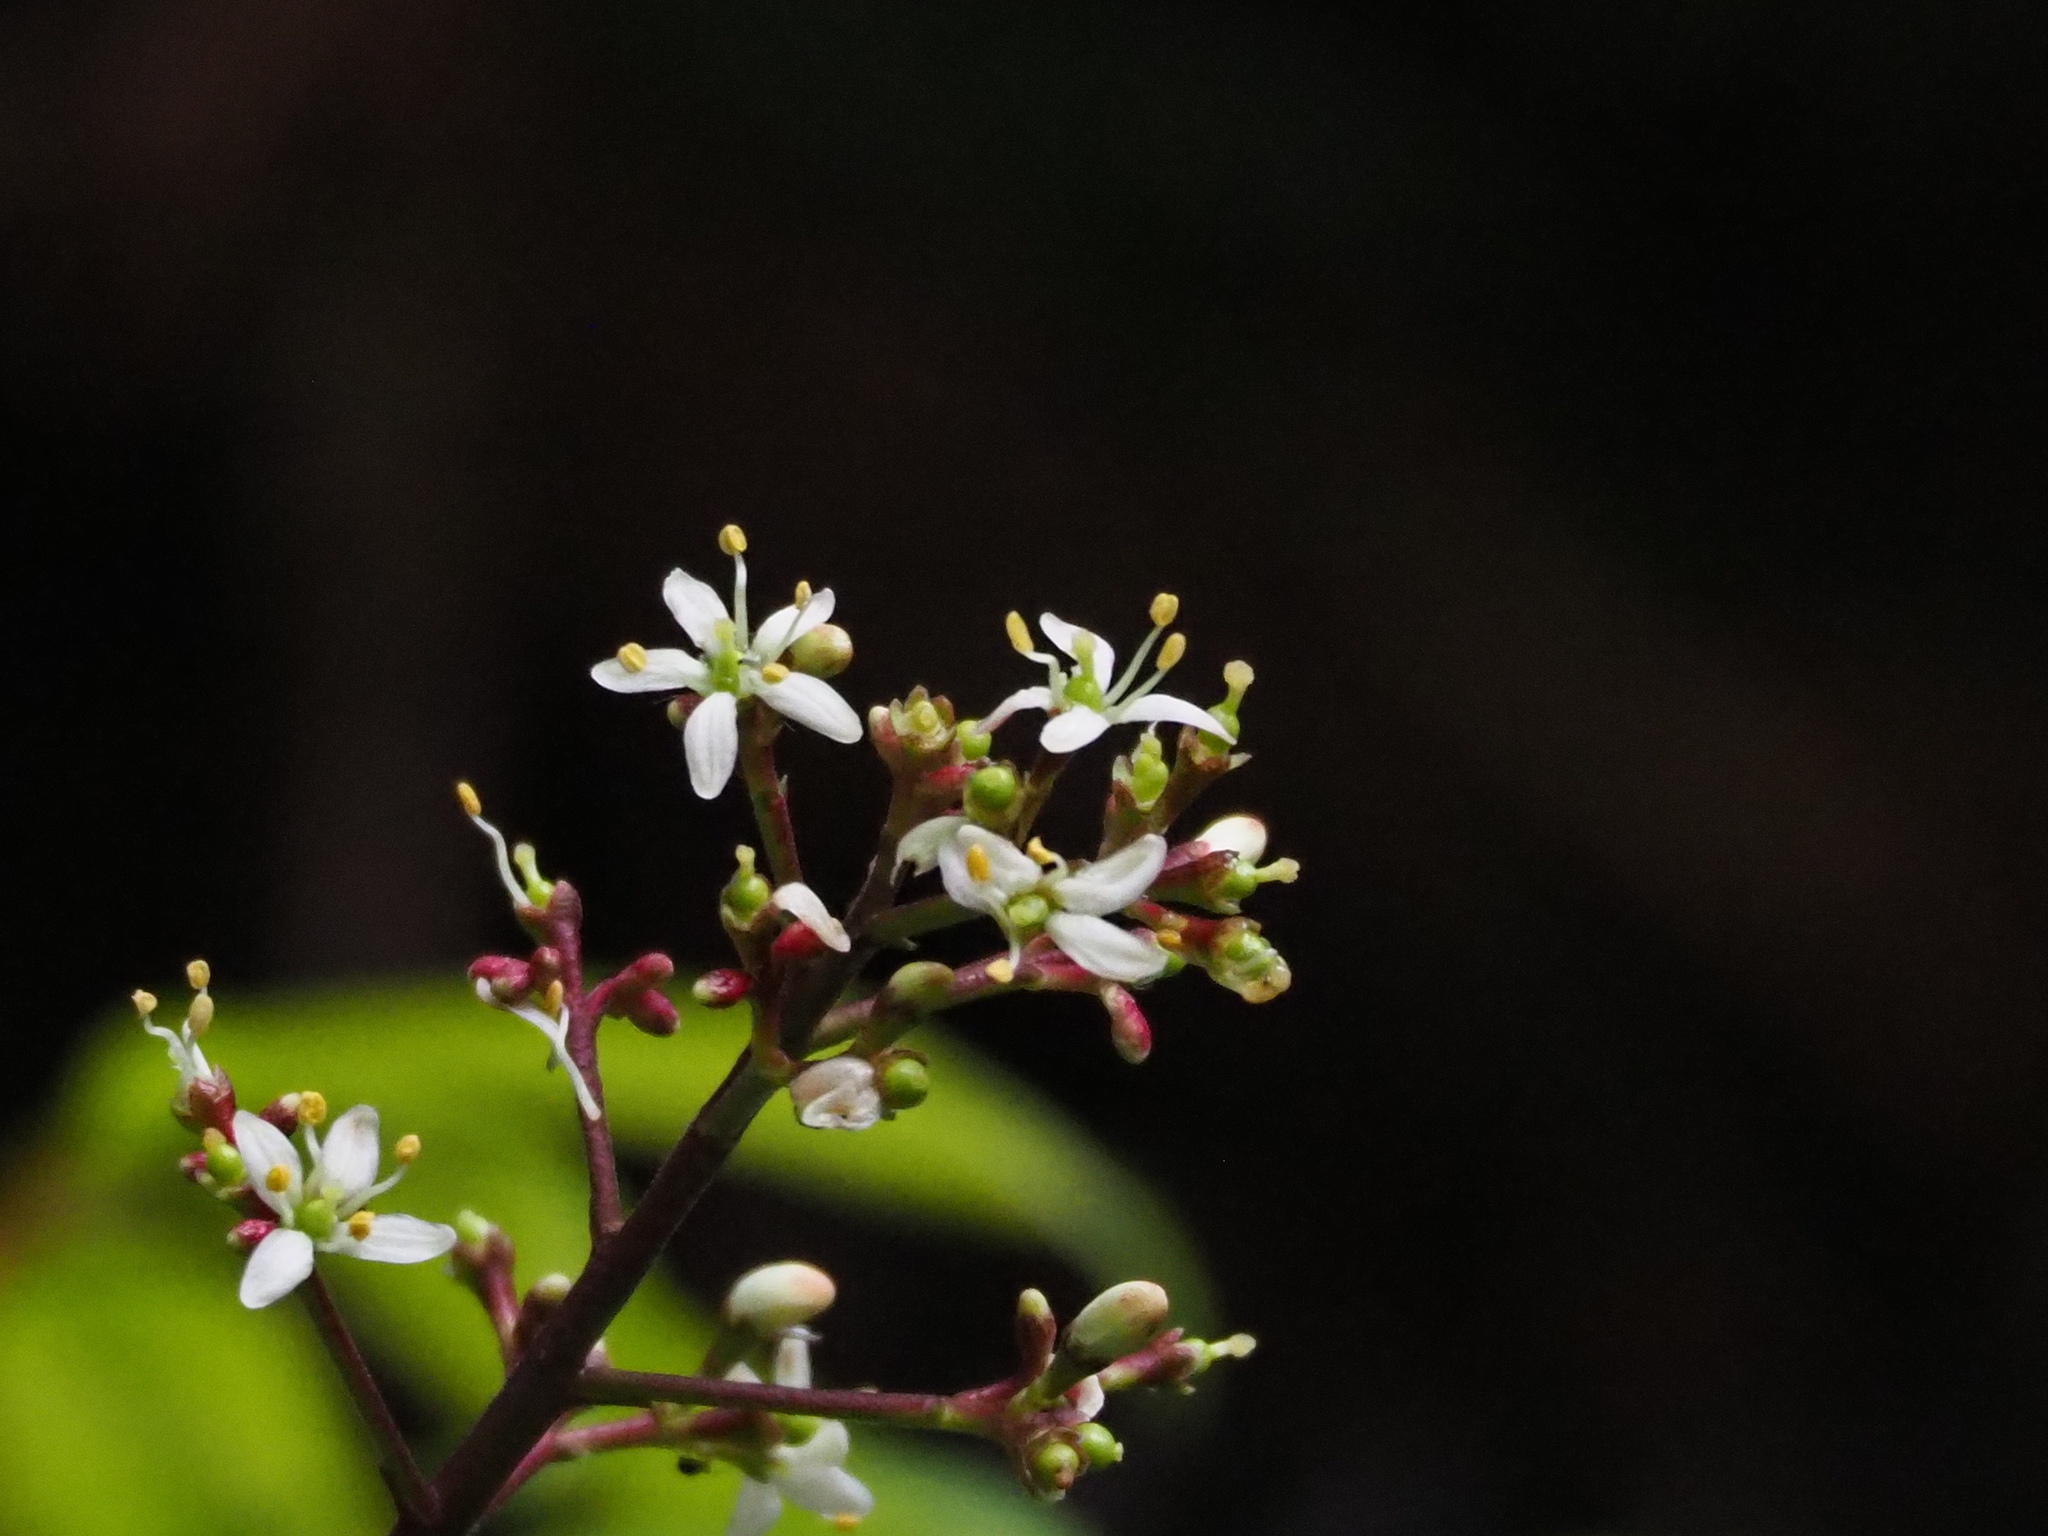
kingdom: Plantae
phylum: Tracheophyta
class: Magnoliopsida
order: Sapindales
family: Rutaceae
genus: Skimmia
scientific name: Skimmia japonica
